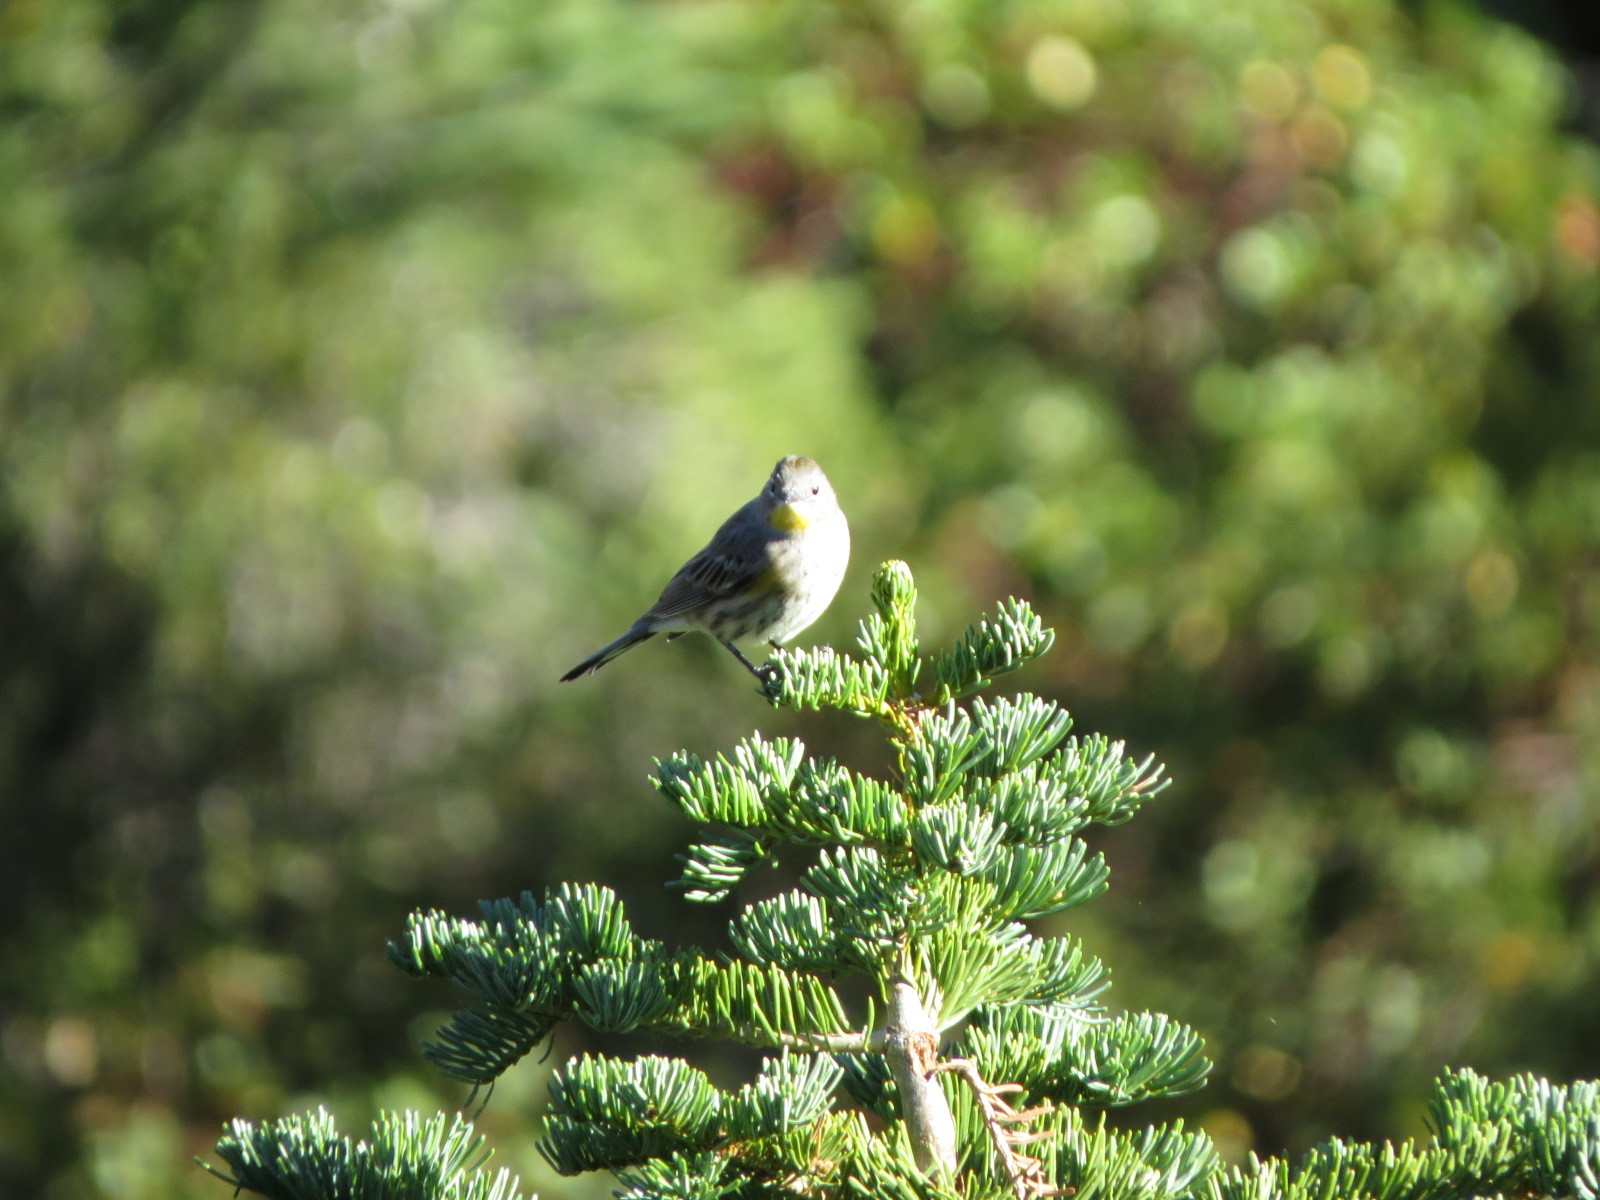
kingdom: Animalia
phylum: Chordata
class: Aves
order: Passeriformes
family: Parulidae
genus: Setophaga
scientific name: Setophaga auduboni
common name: Audubon's warbler
